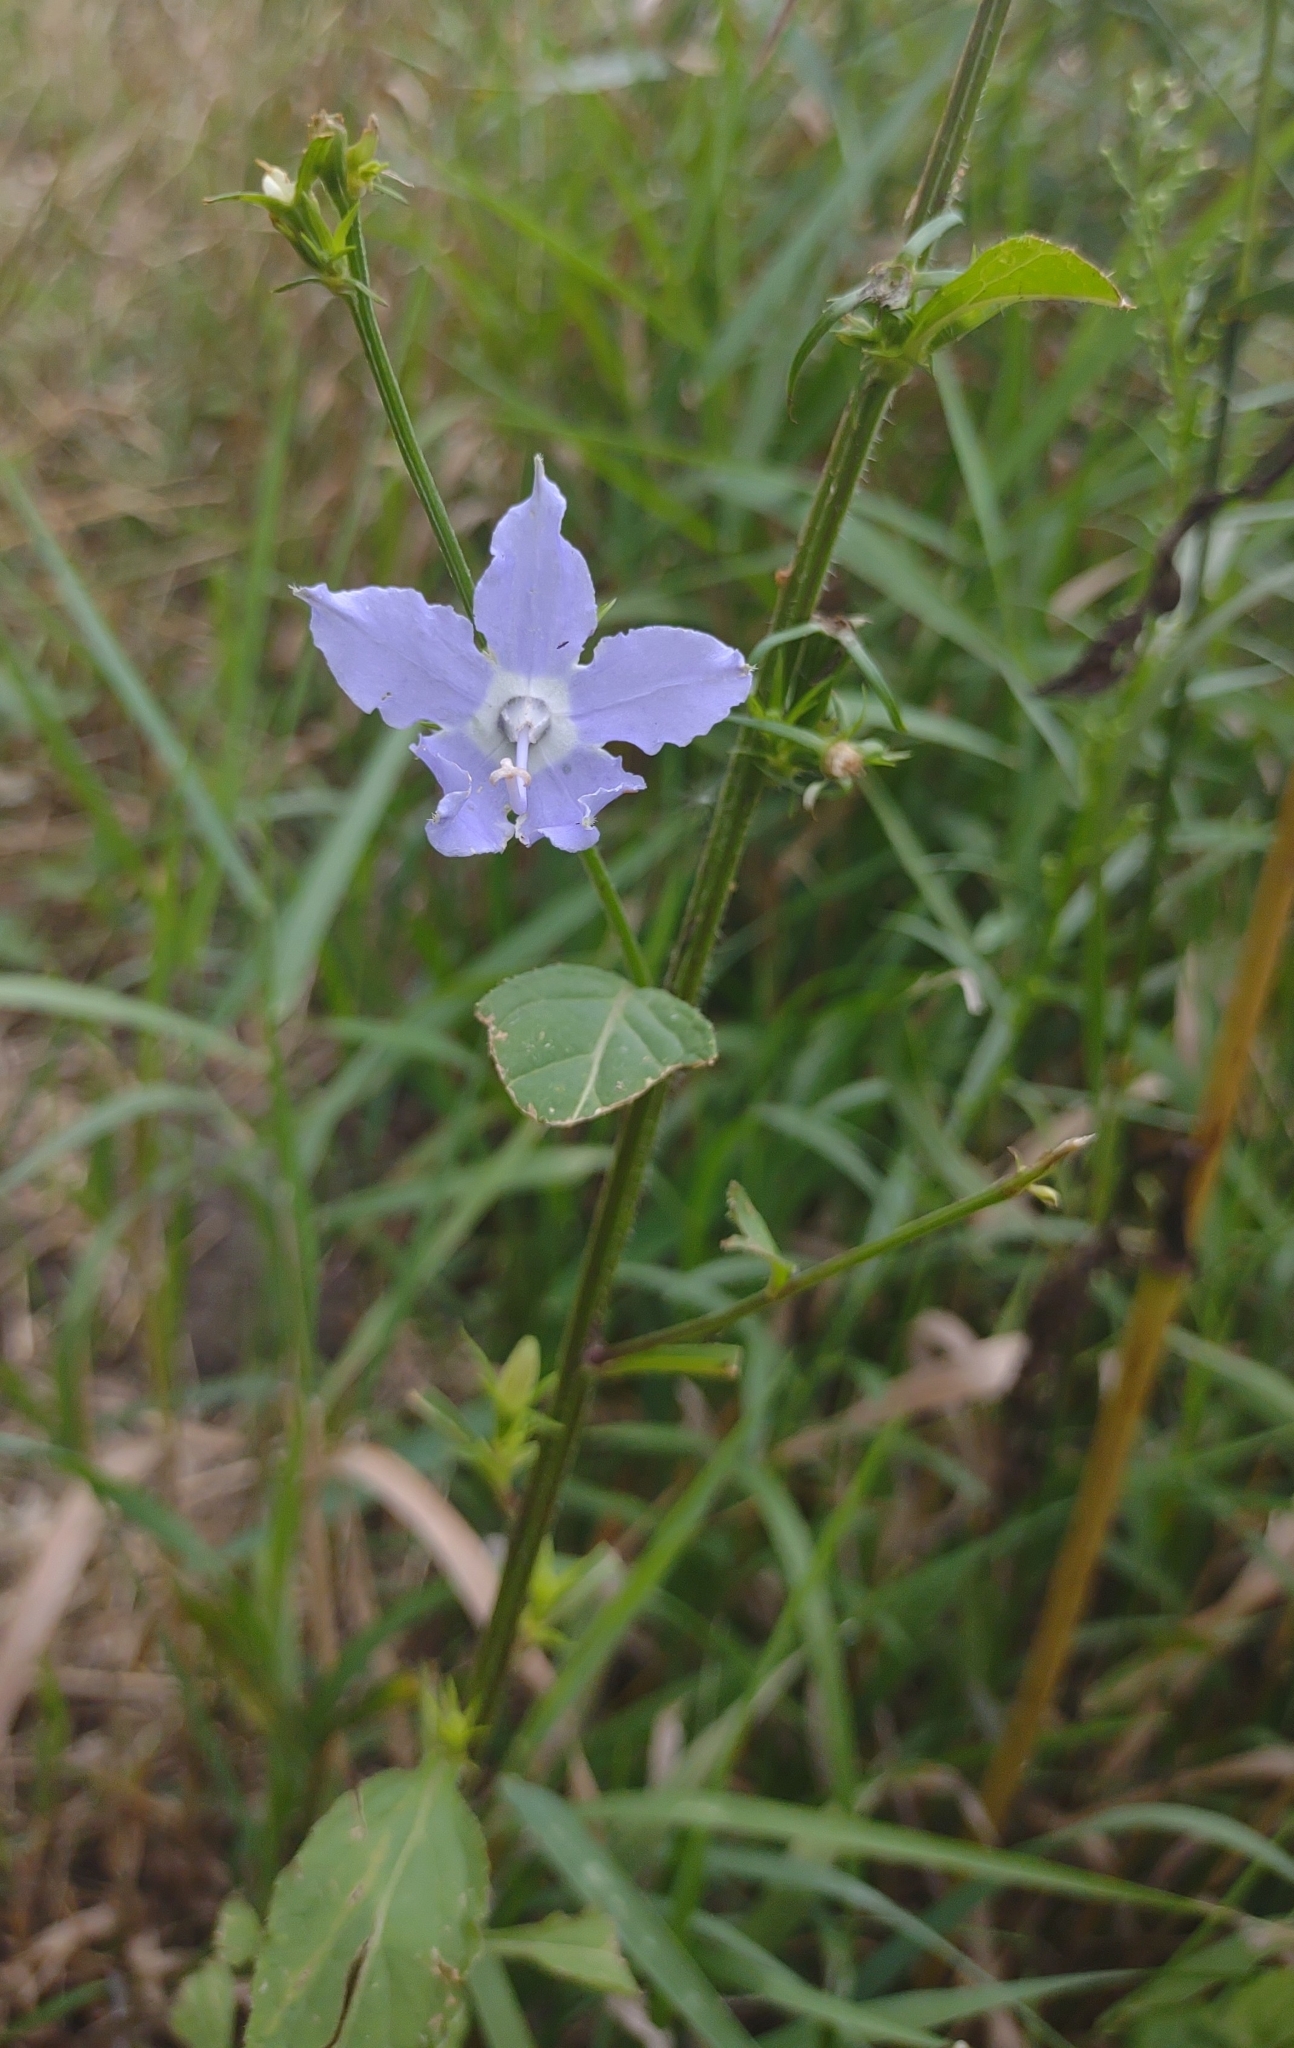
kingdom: Plantae
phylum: Tracheophyta
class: Magnoliopsida
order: Asterales
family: Campanulaceae
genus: Campanulastrum
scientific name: Campanulastrum americanum
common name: American bellflower
